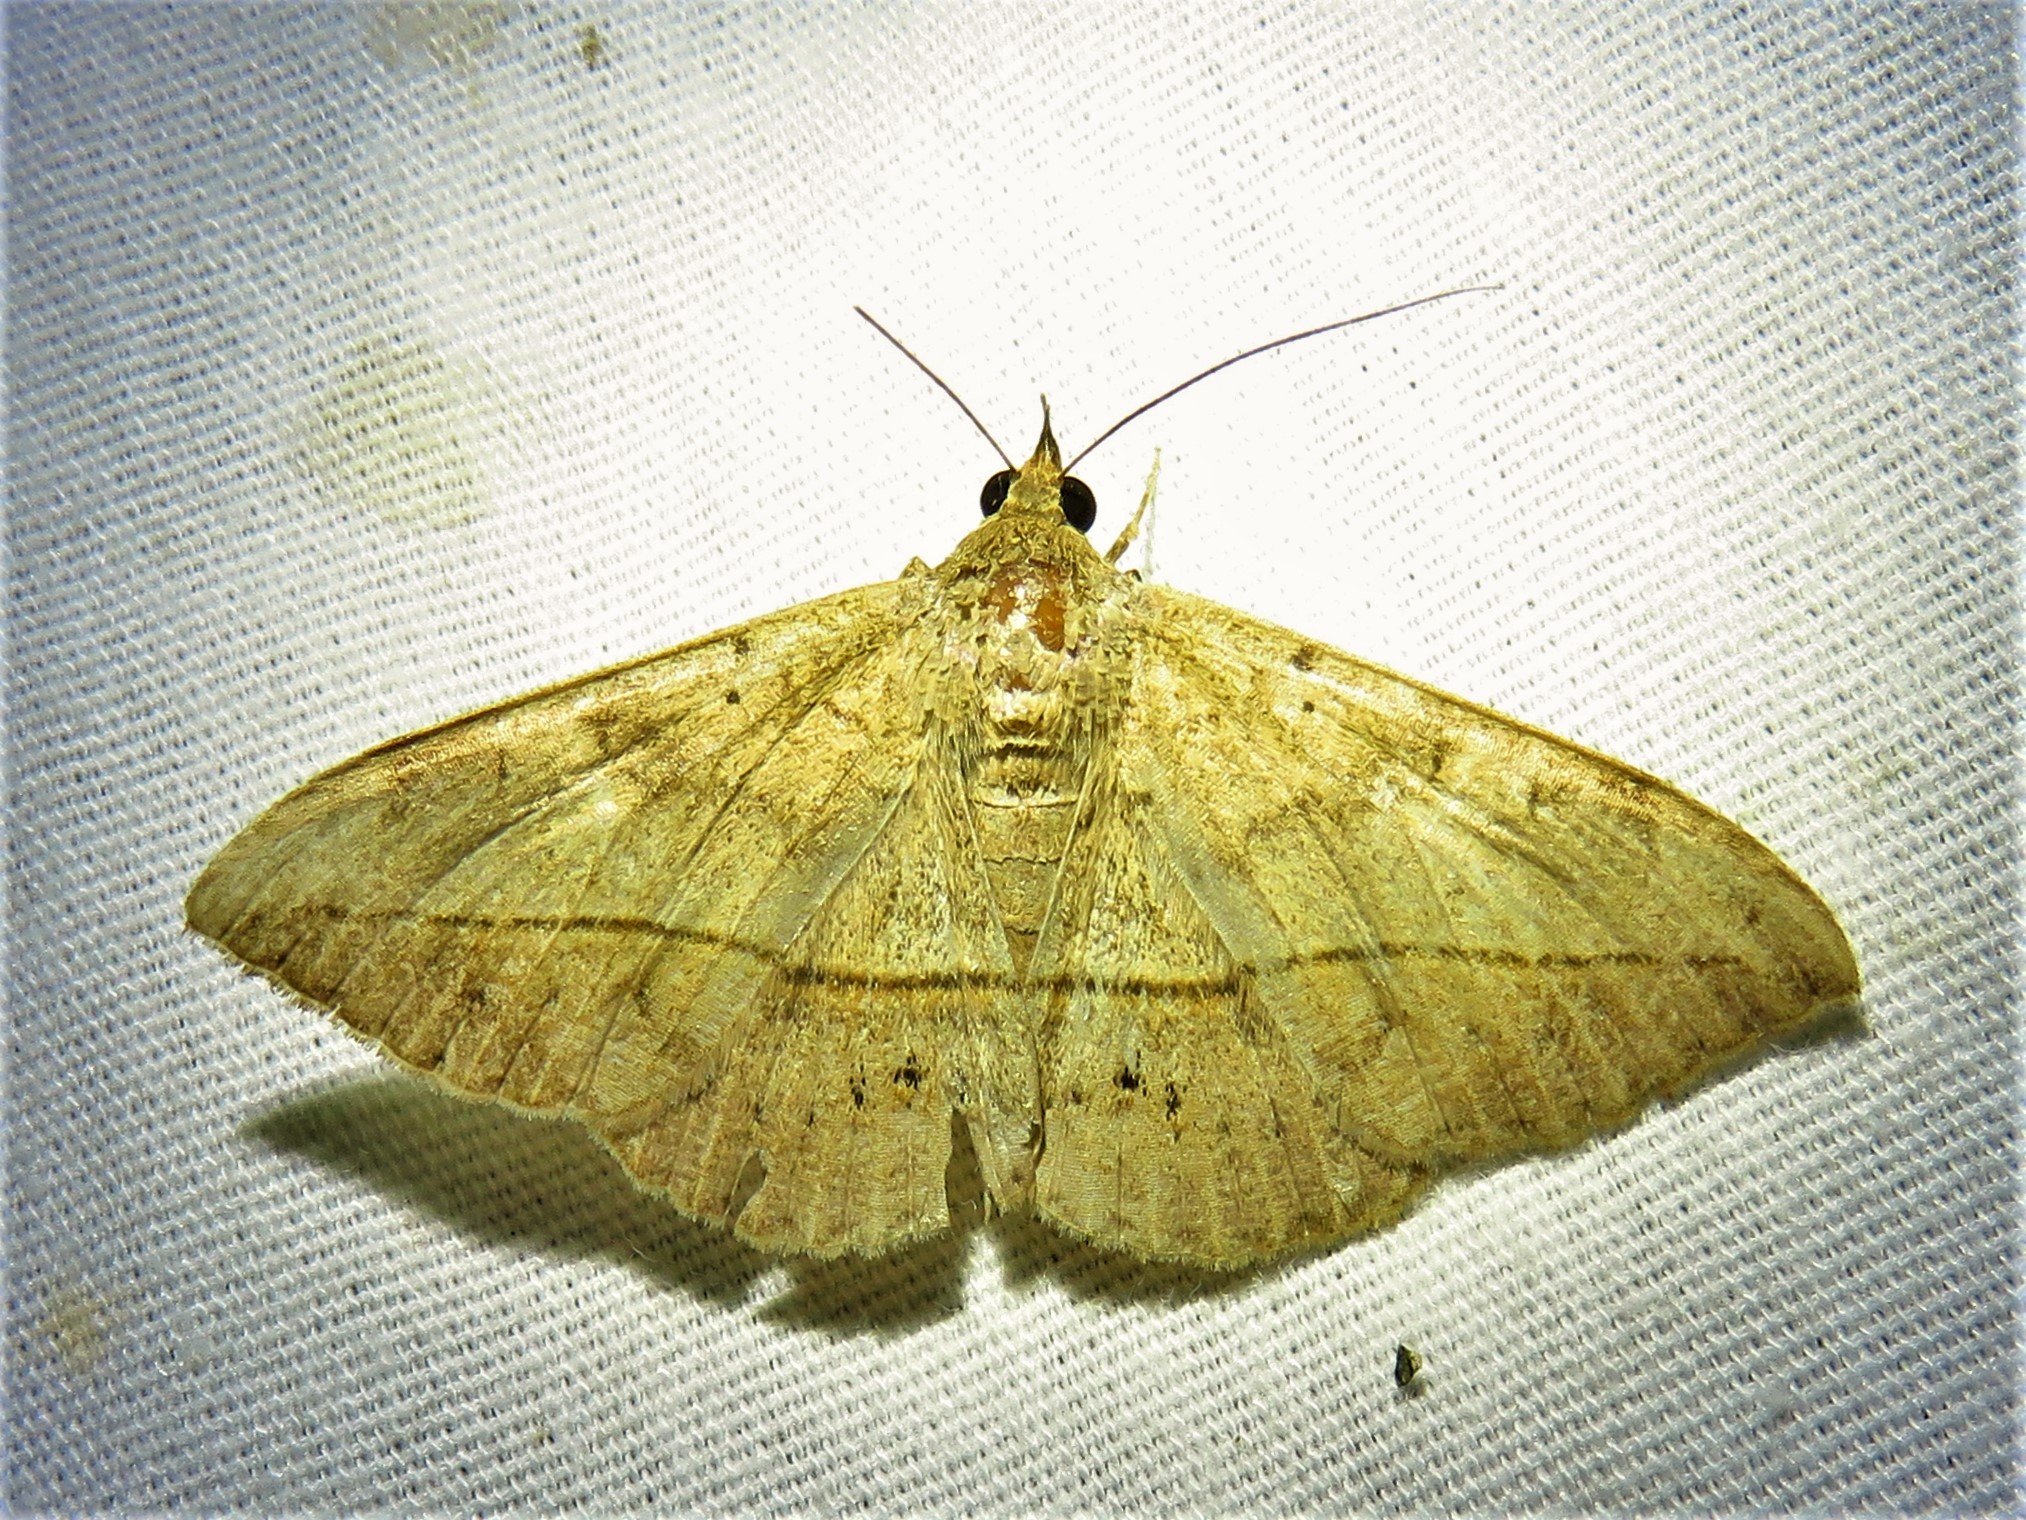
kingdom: Animalia
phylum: Arthropoda
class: Insecta
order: Lepidoptera
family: Erebidae
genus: Anticarsia
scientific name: Anticarsia gemmatalis
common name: Cutworm moth
